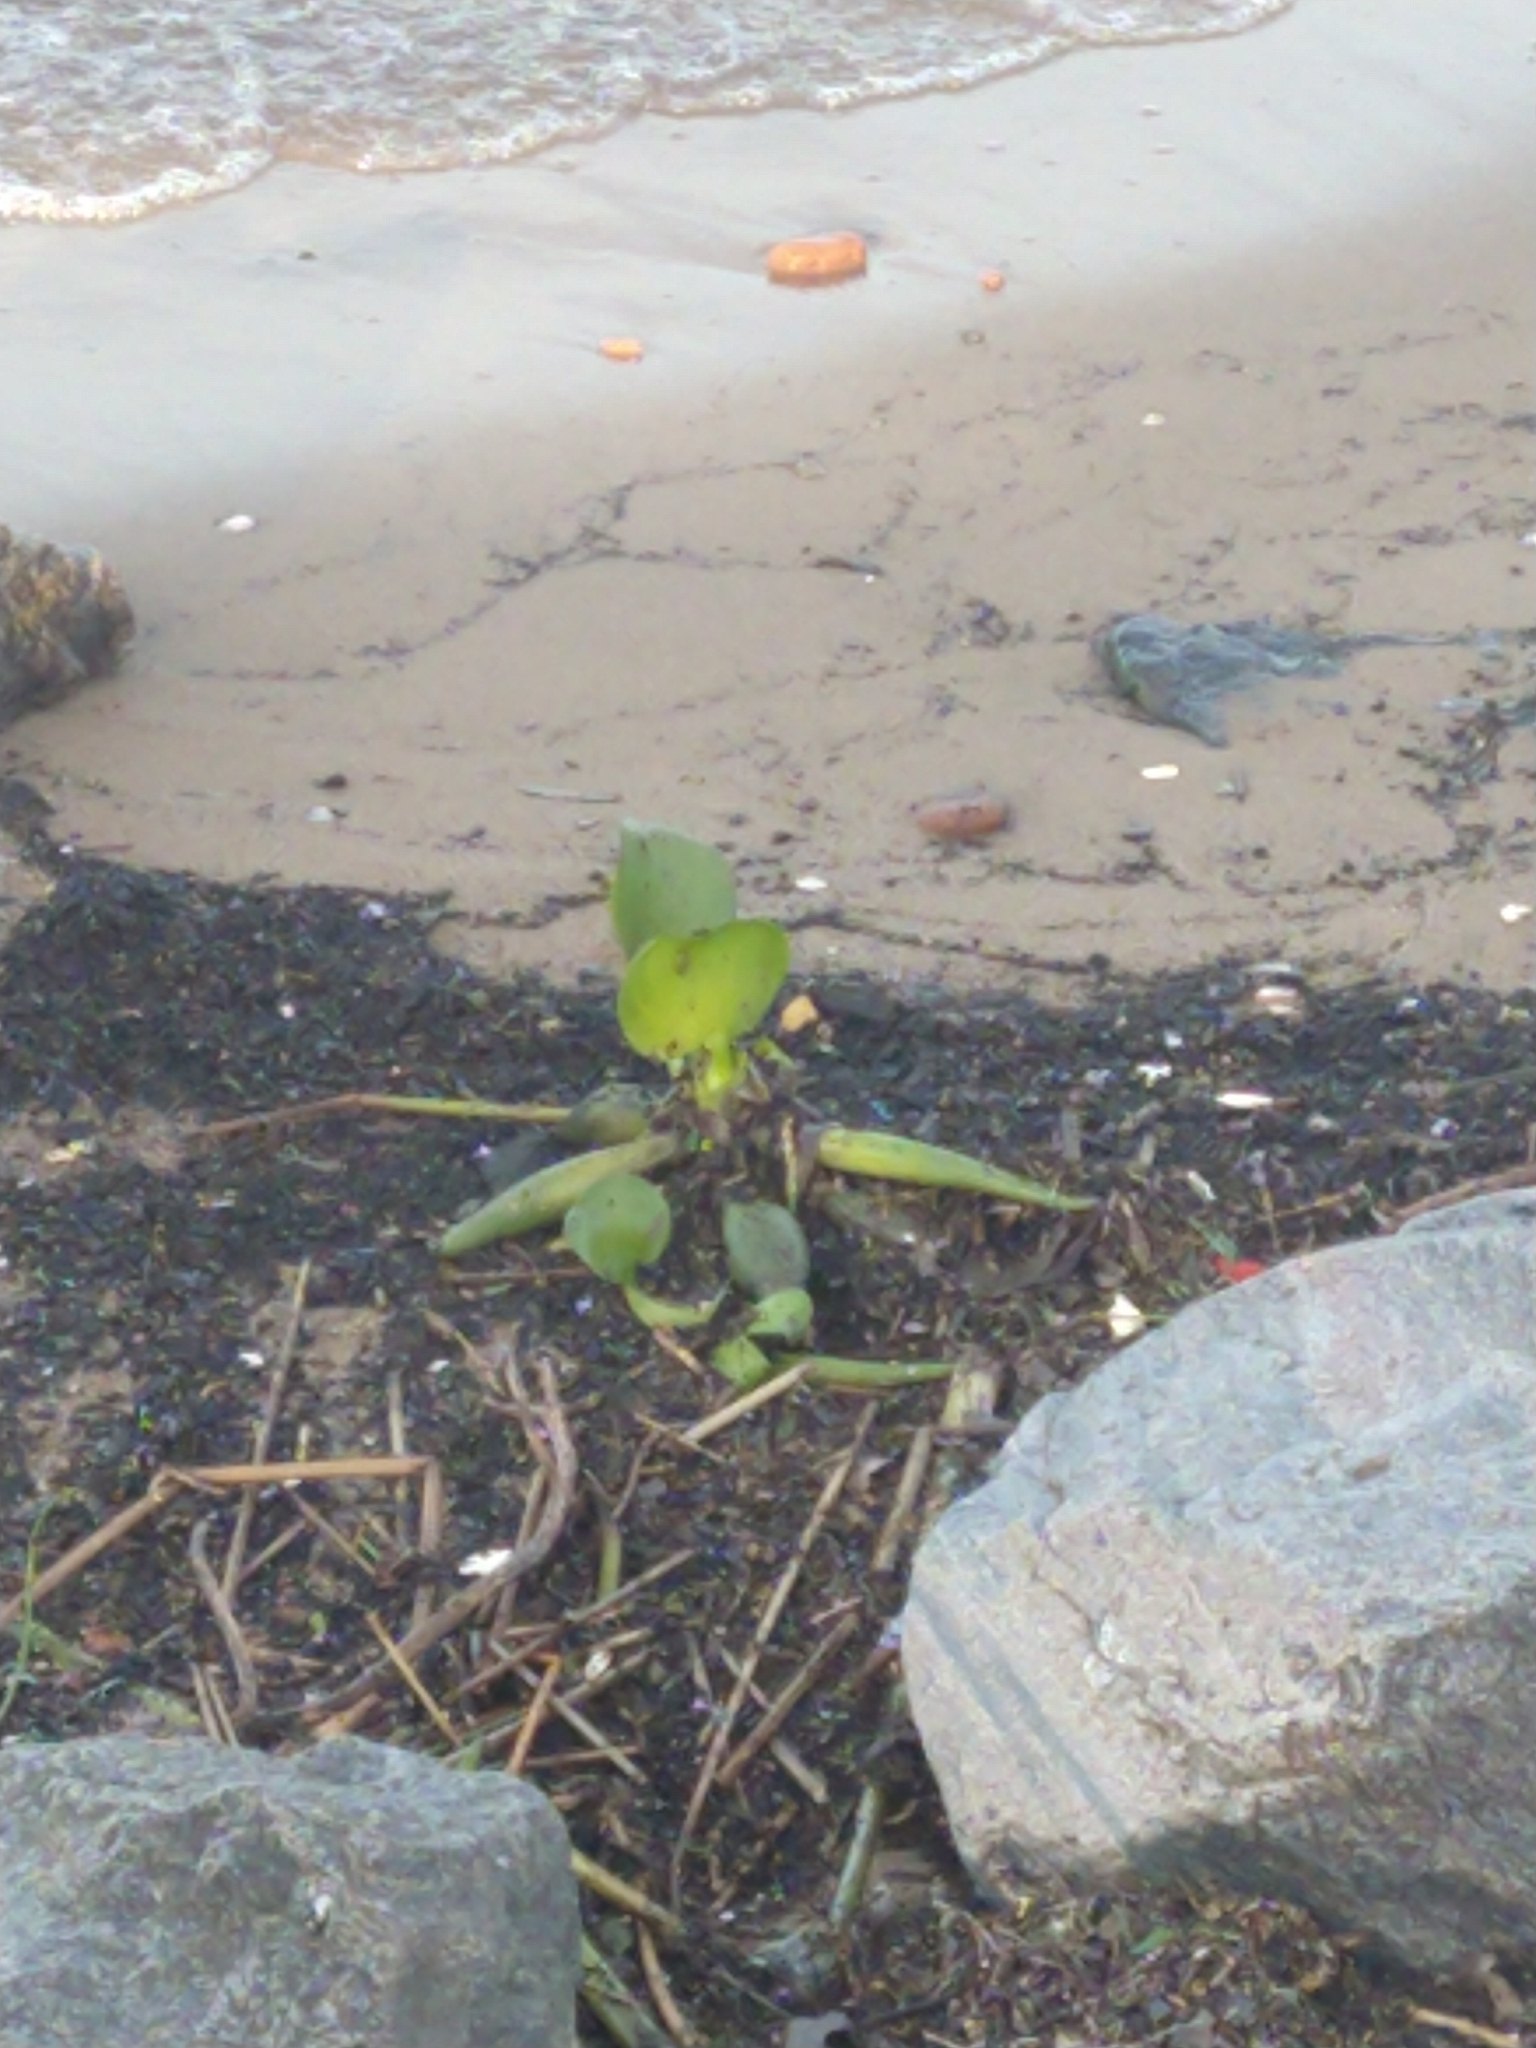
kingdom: Plantae
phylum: Tracheophyta
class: Liliopsida
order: Commelinales
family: Pontederiaceae
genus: Pontederia
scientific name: Pontederia crassipes
